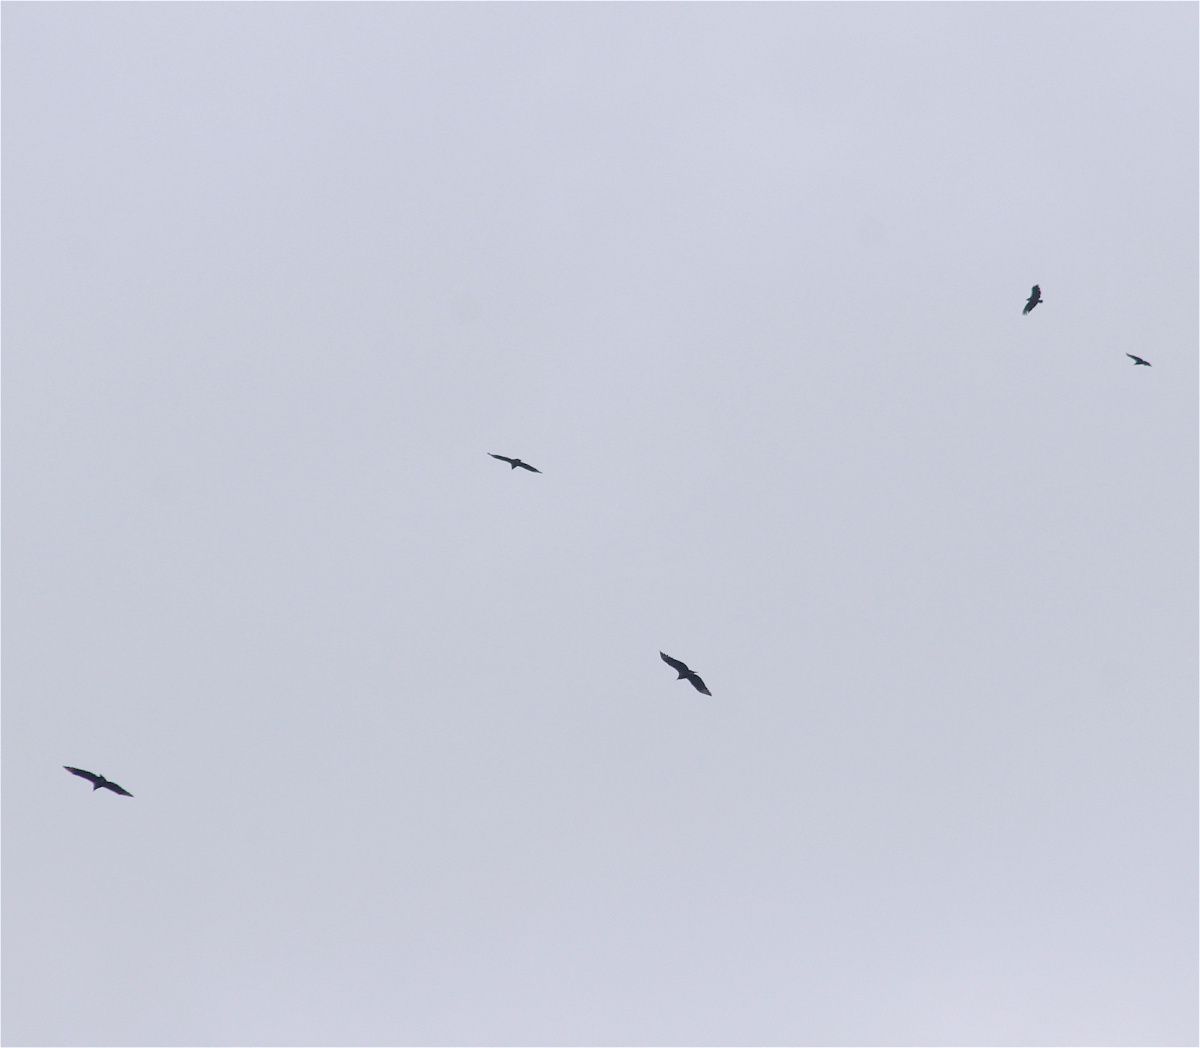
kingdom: Animalia
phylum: Chordata
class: Aves
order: Accipitriformes
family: Cathartidae
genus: Coragyps
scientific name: Coragyps atratus
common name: Black vulture
